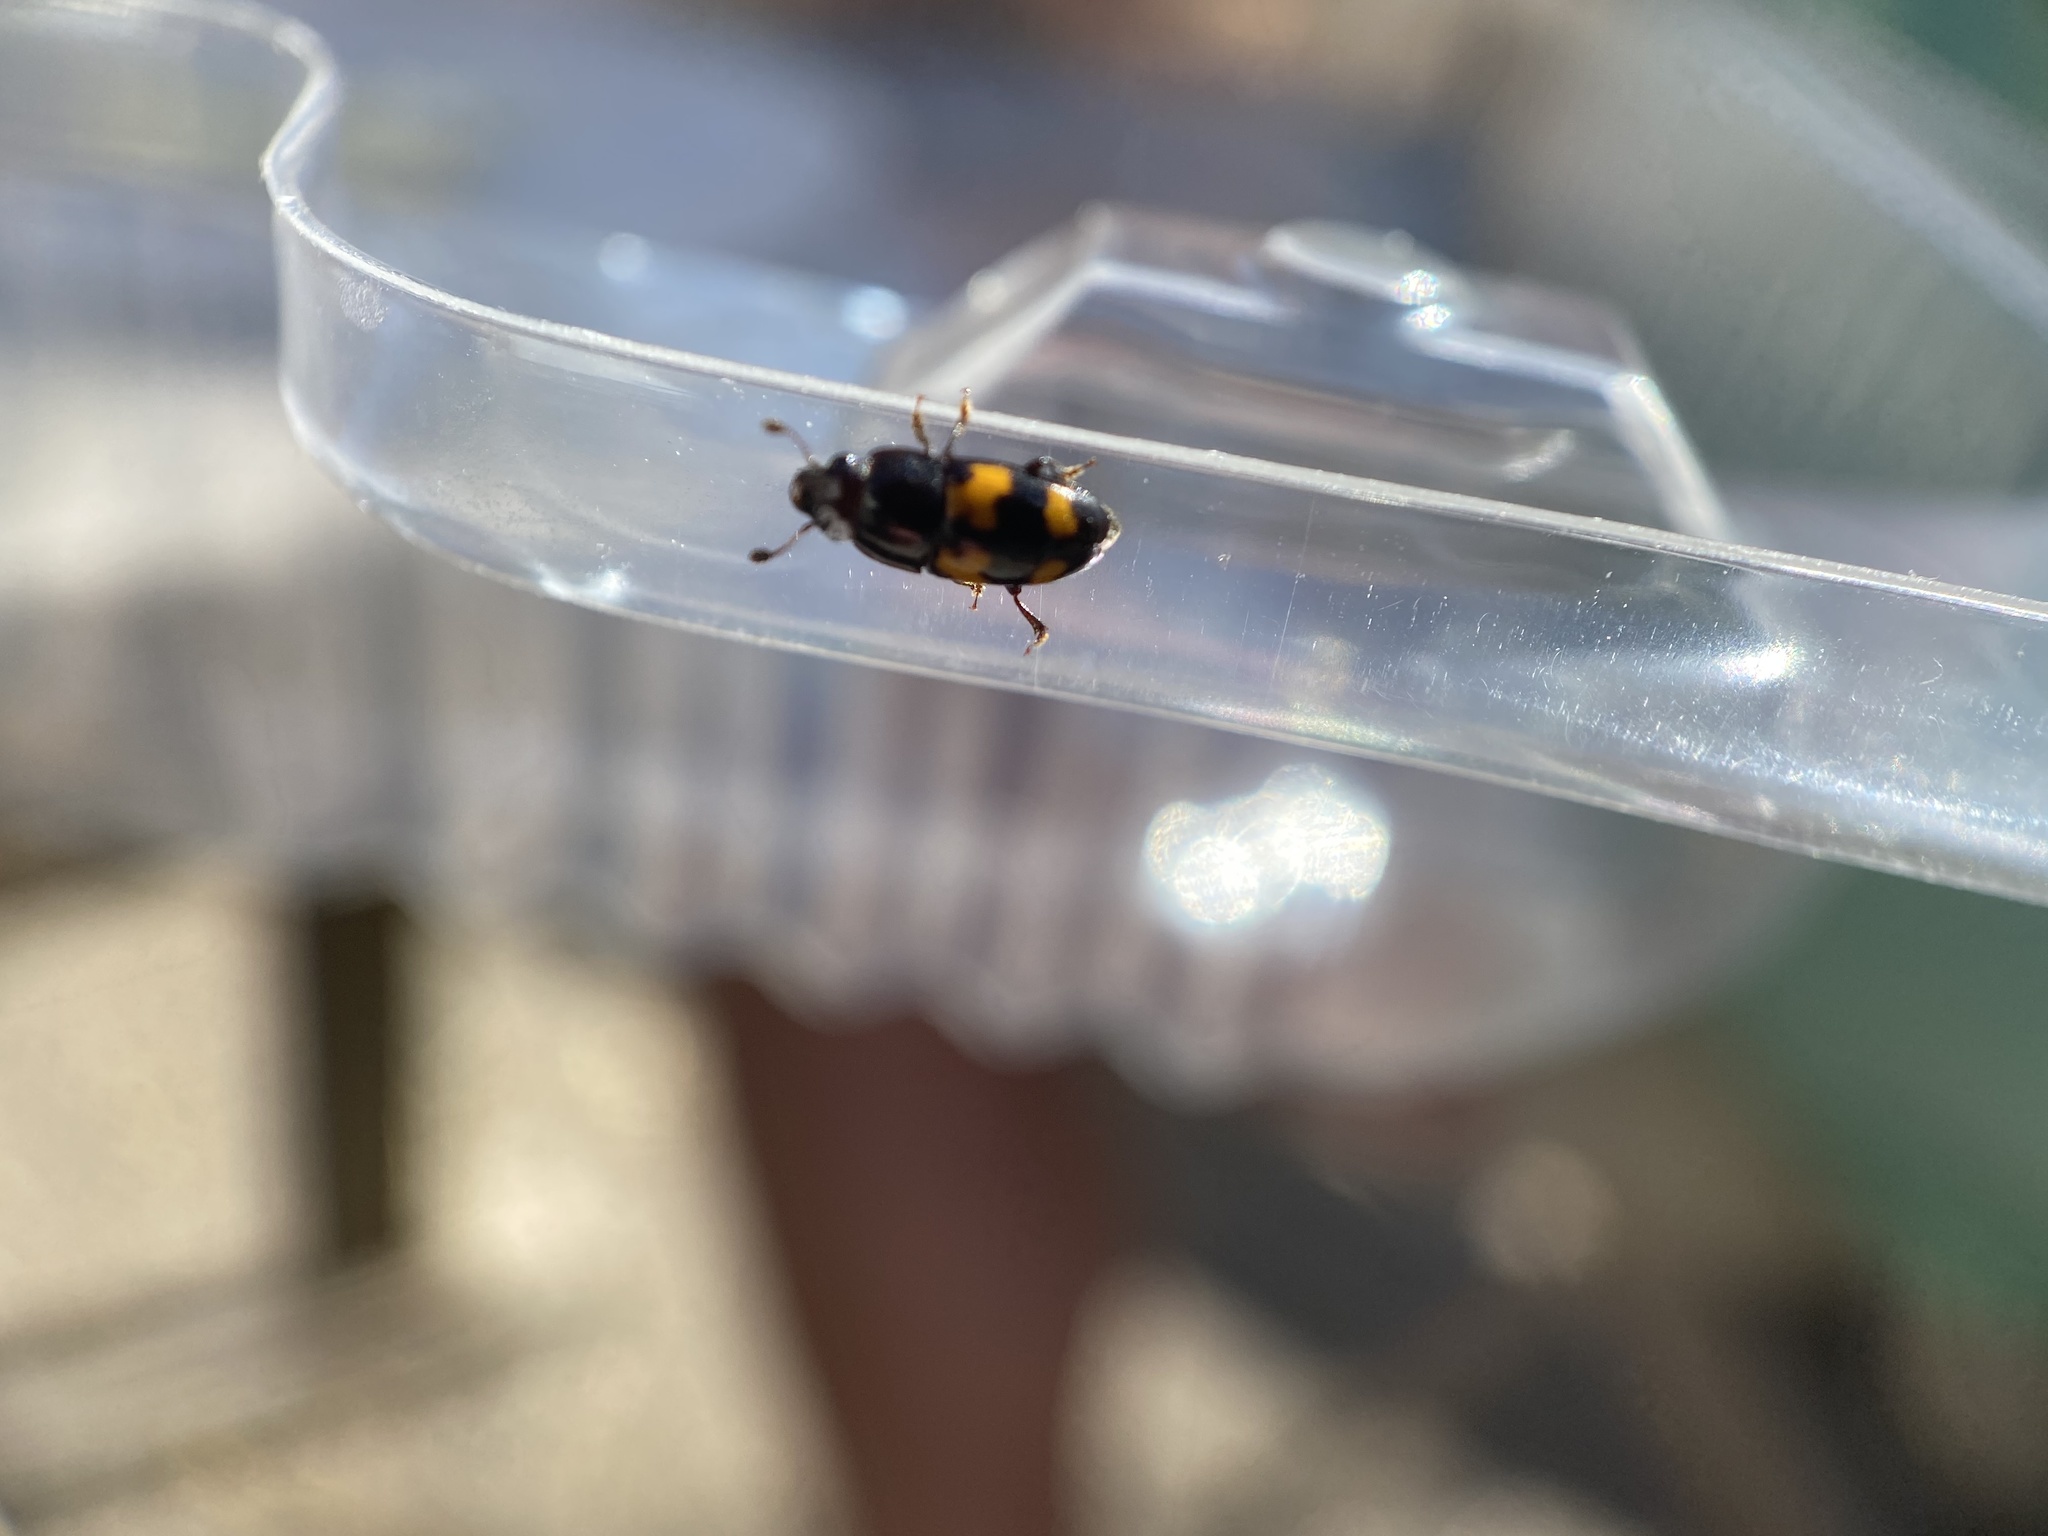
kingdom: Animalia
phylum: Arthropoda
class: Insecta
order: Coleoptera
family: Nitidulidae
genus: Glischrochilus
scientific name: Glischrochilus fasciatus
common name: Picnic beetle
